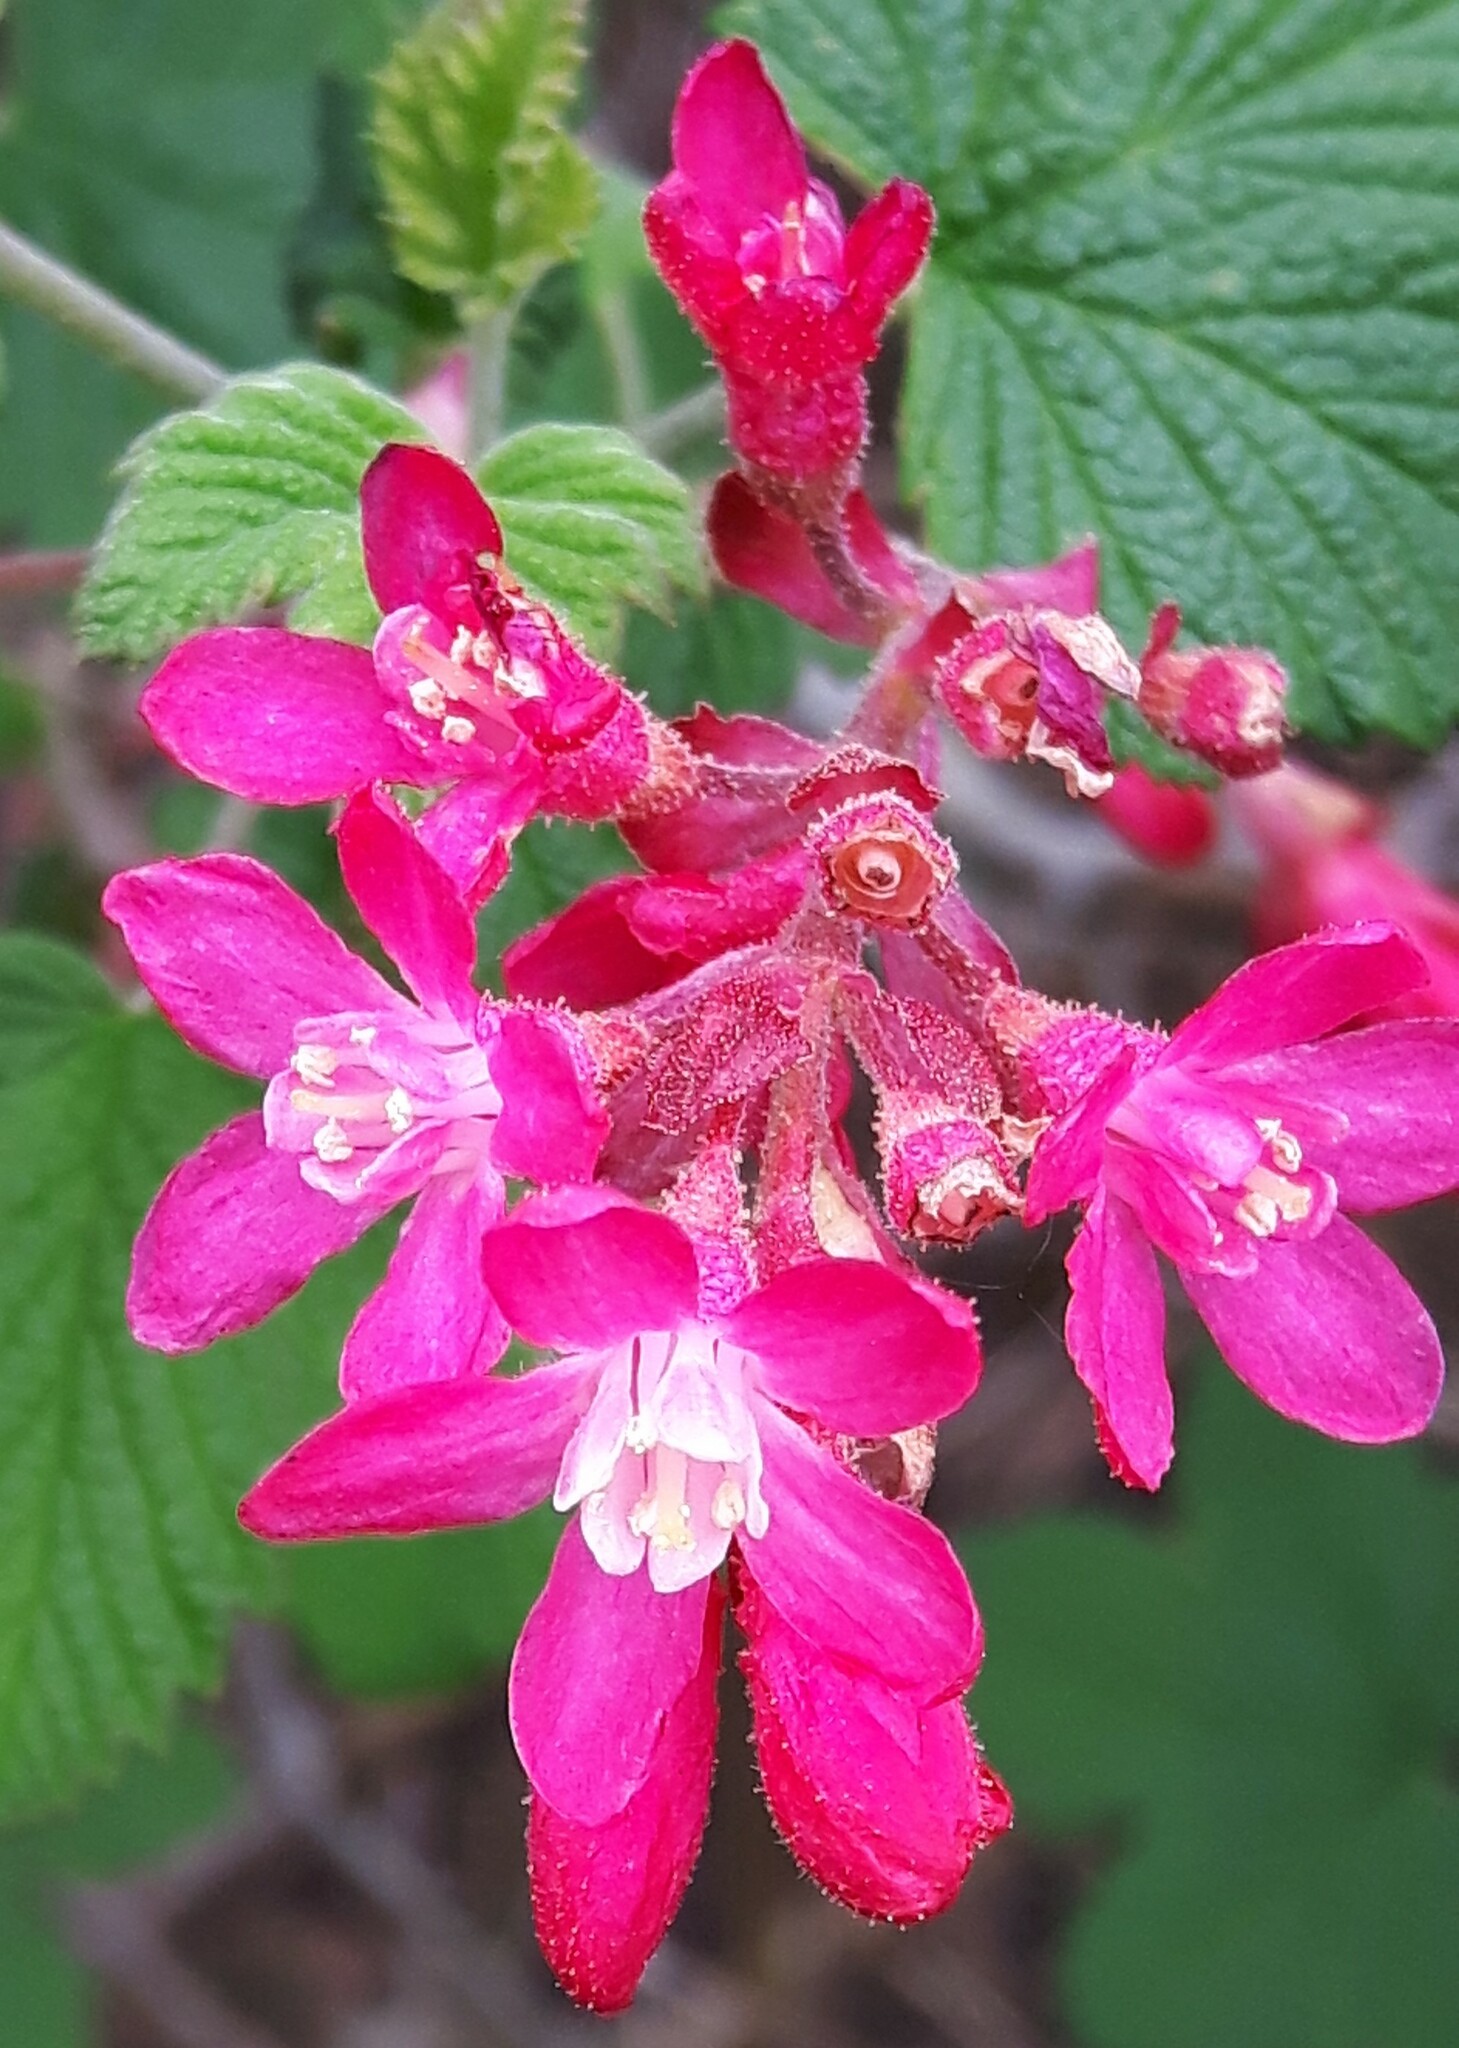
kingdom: Plantae
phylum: Tracheophyta
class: Magnoliopsida
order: Saxifragales
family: Grossulariaceae
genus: Ribes
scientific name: Ribes sanguineum
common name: Flowering currant
